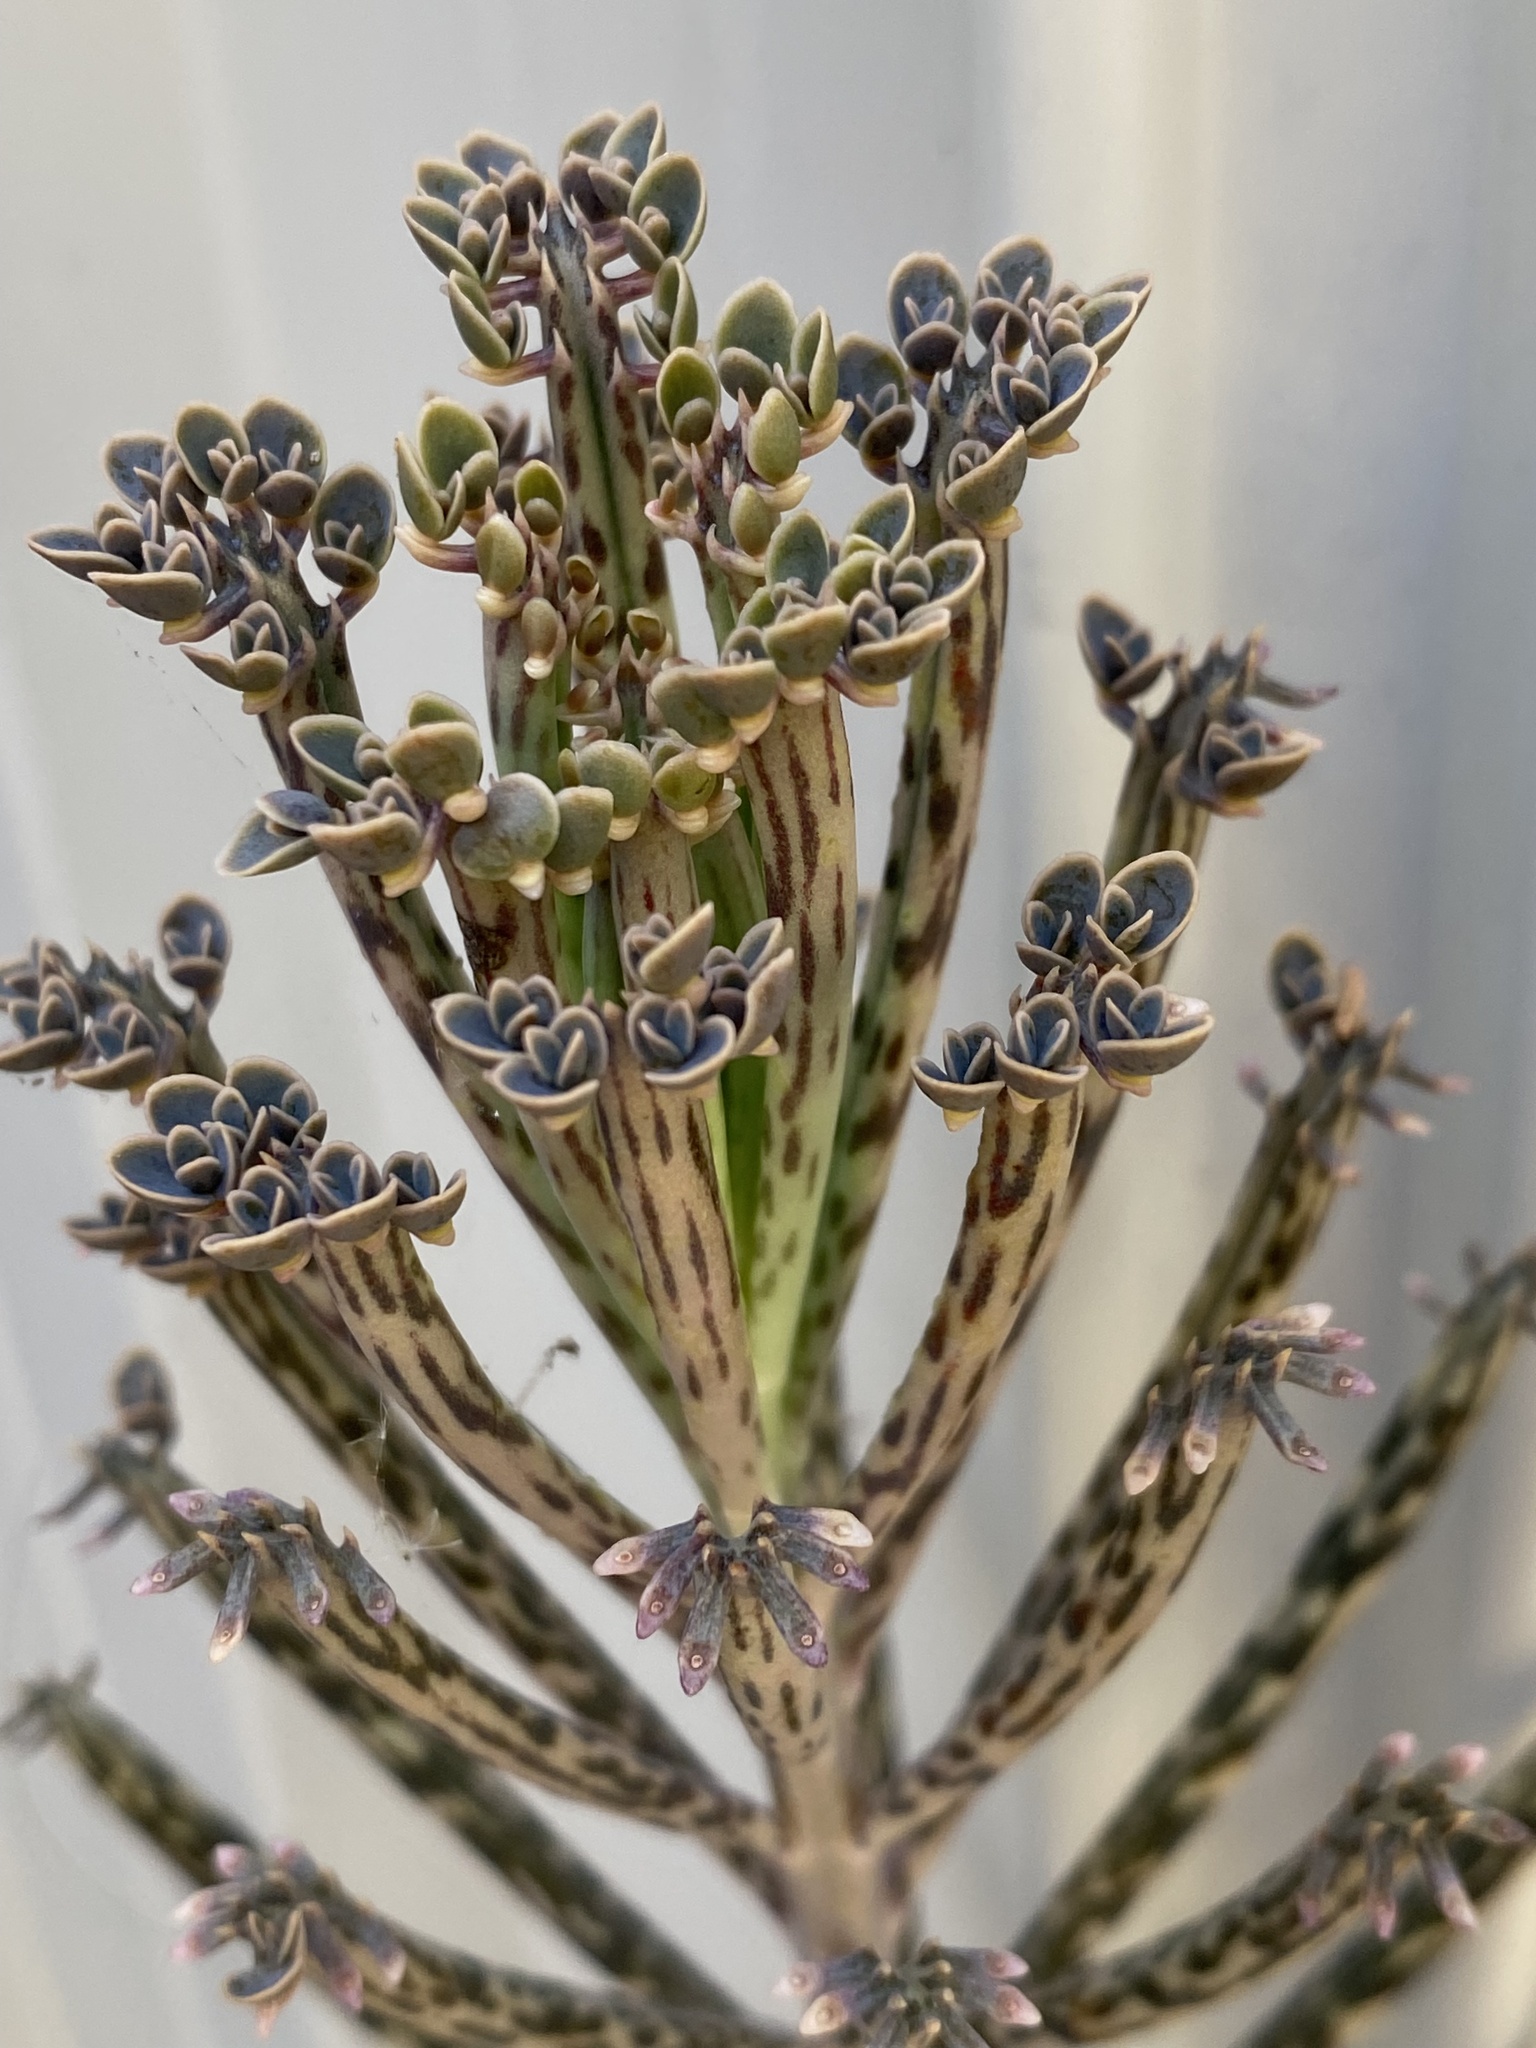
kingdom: Plantae
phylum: Tracheophyta
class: Magnoliopsida
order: Saxifragales
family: Crassulaceae
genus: Kalanchoe
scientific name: Kalanchoe delagoensis
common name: Chandelier plant
